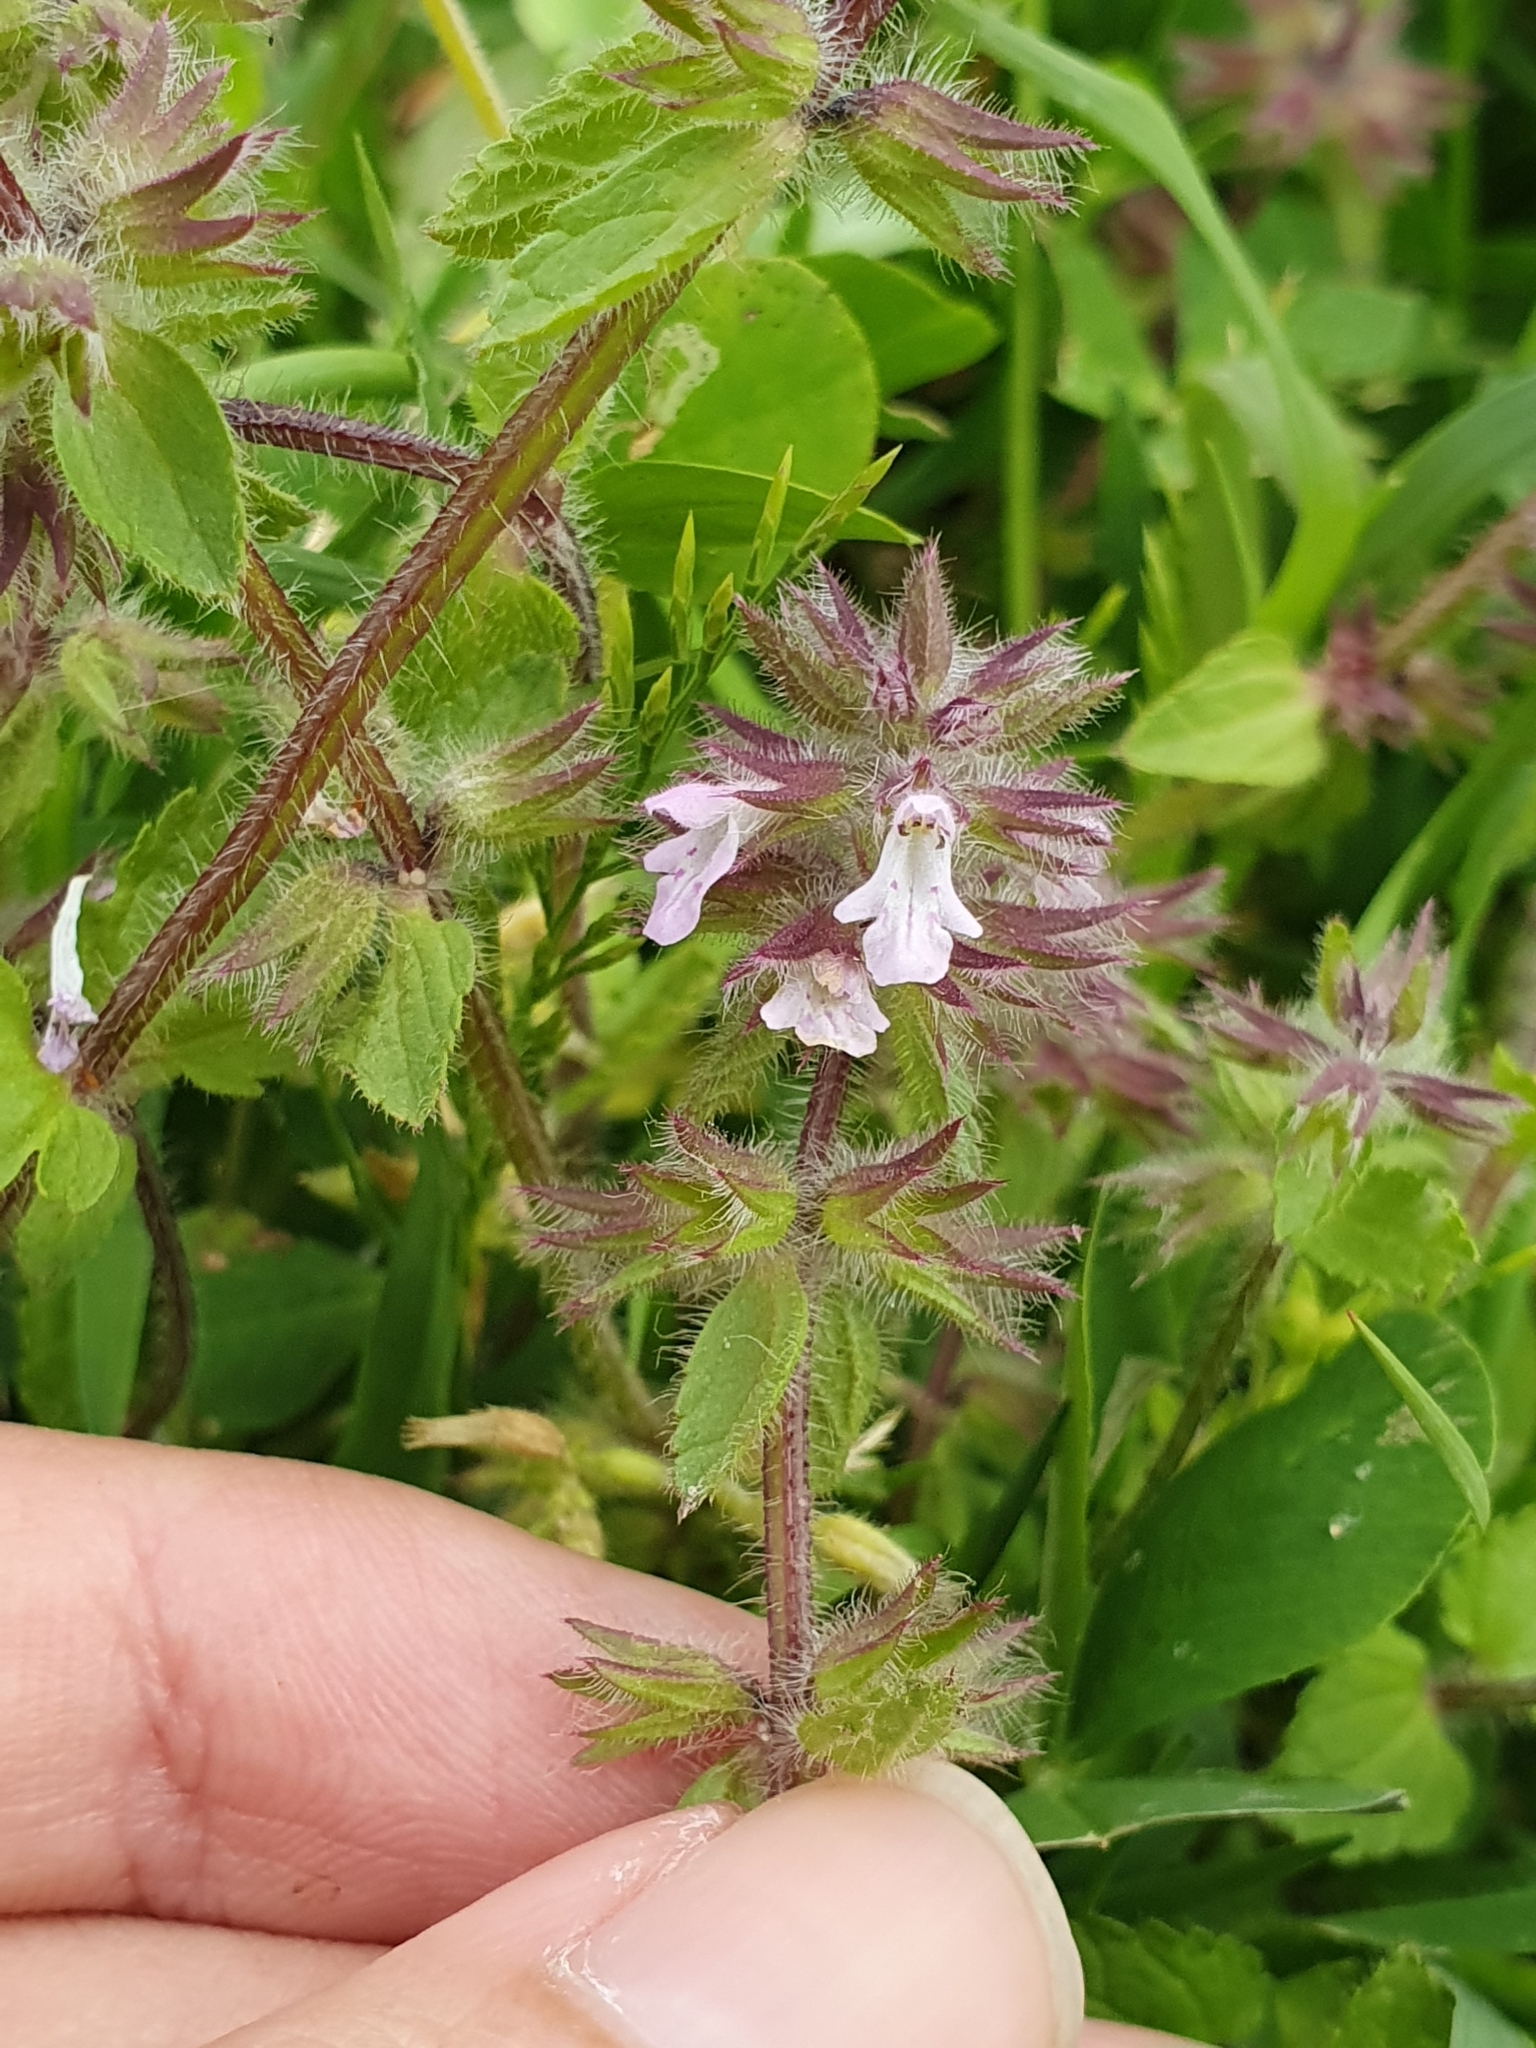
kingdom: Plantae
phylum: Tracheophyta
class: Magnoliopsida
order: Lamiales
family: Lamiaceae
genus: Stachys
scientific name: Stachys arvensis
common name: Field woundwort
